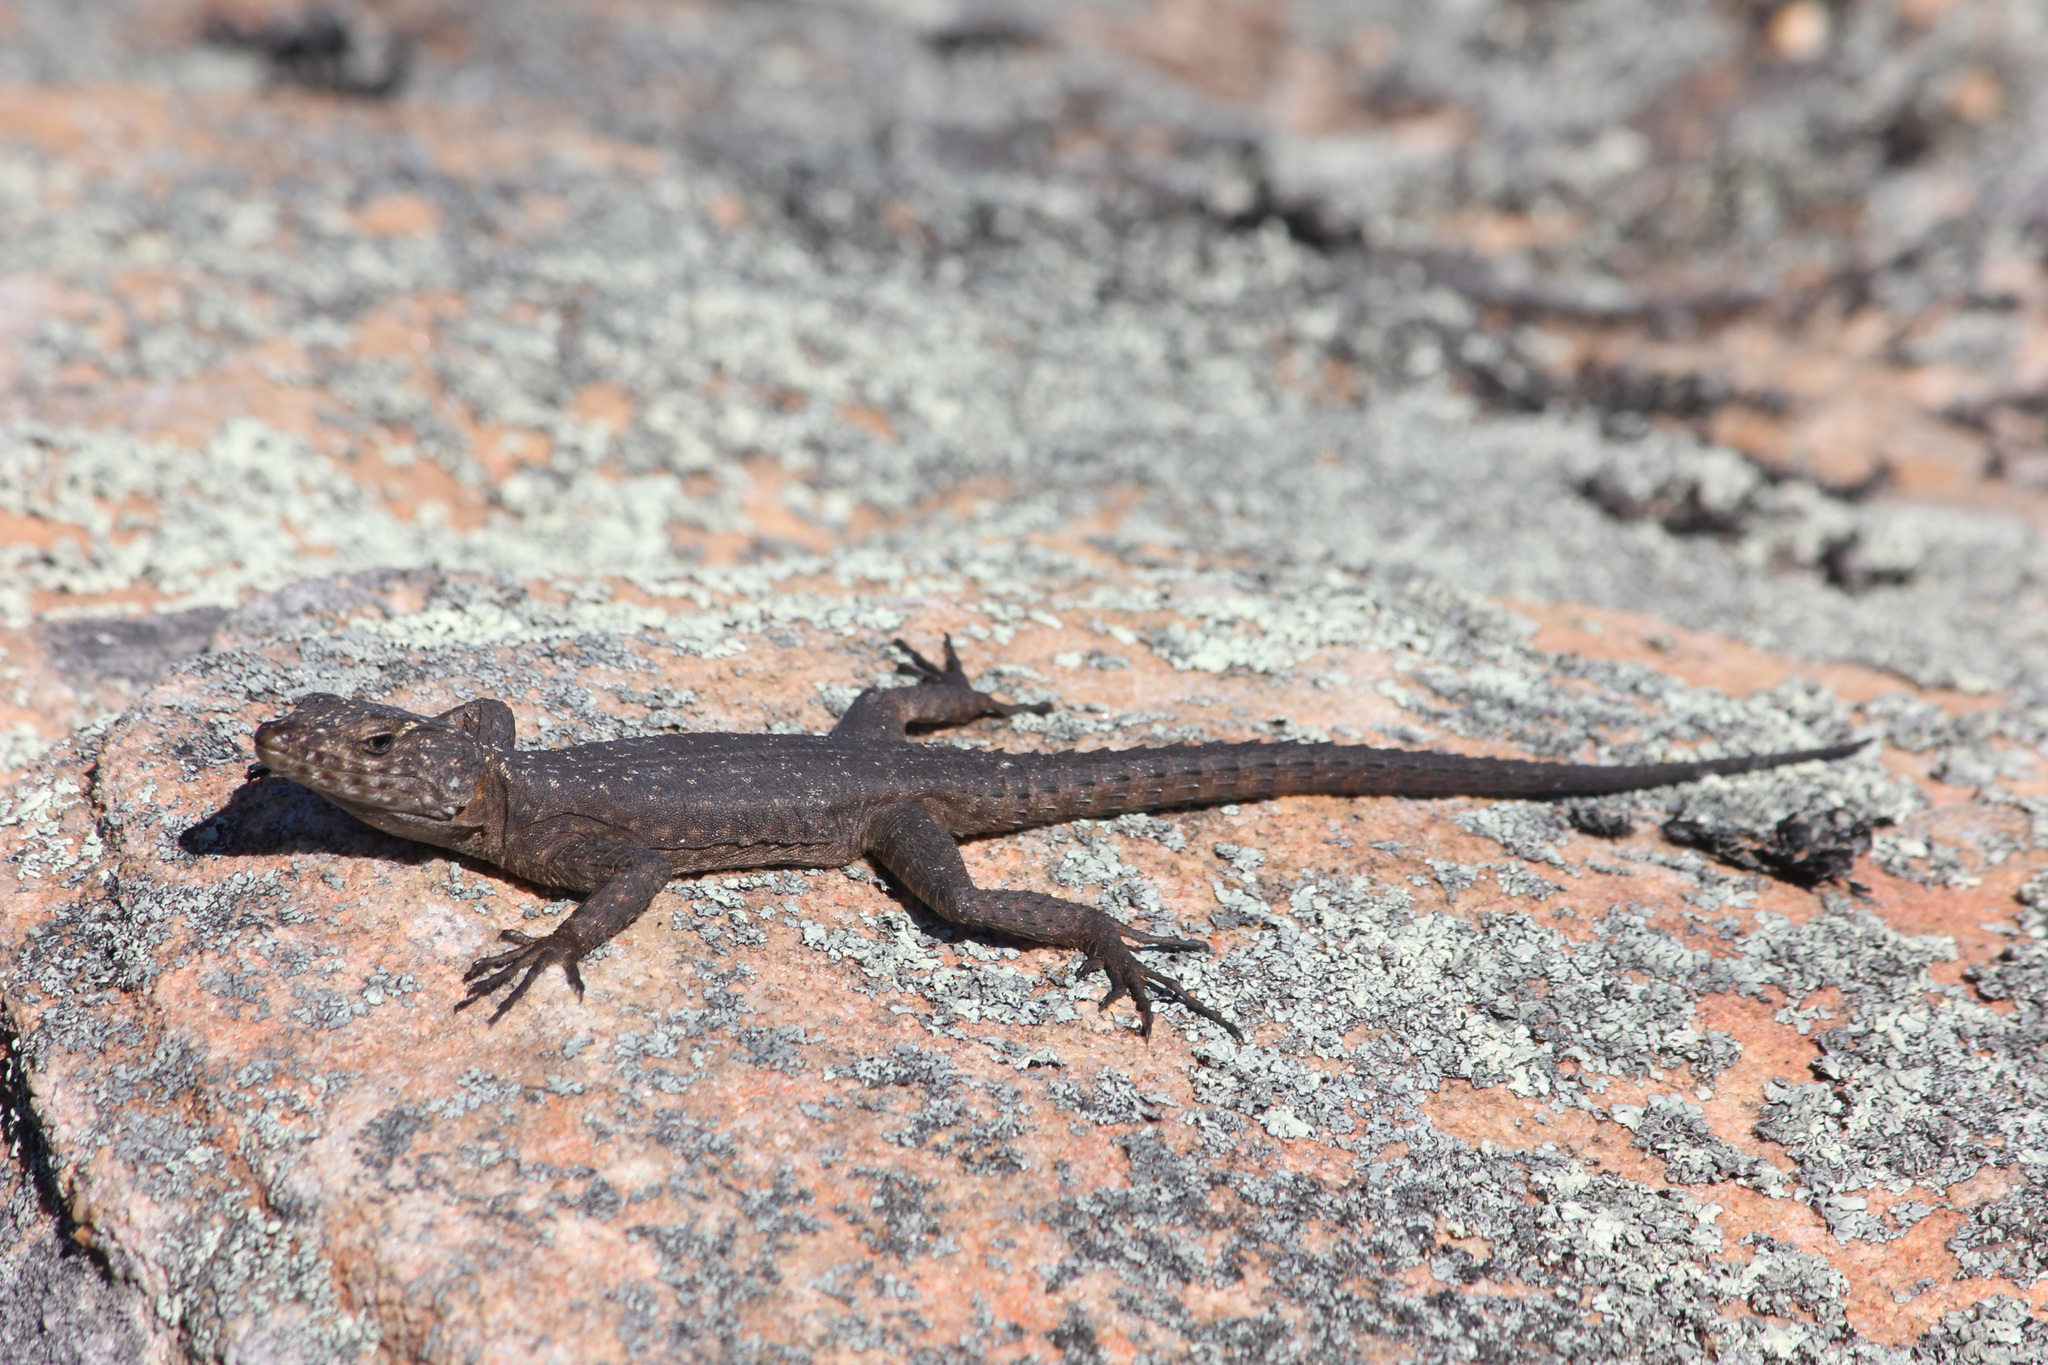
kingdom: Animalia
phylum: Chordata
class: Squamata
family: Cordylidae
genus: Hemicordylus
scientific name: Hemicordylus capensis
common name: Graceful crag lizard
